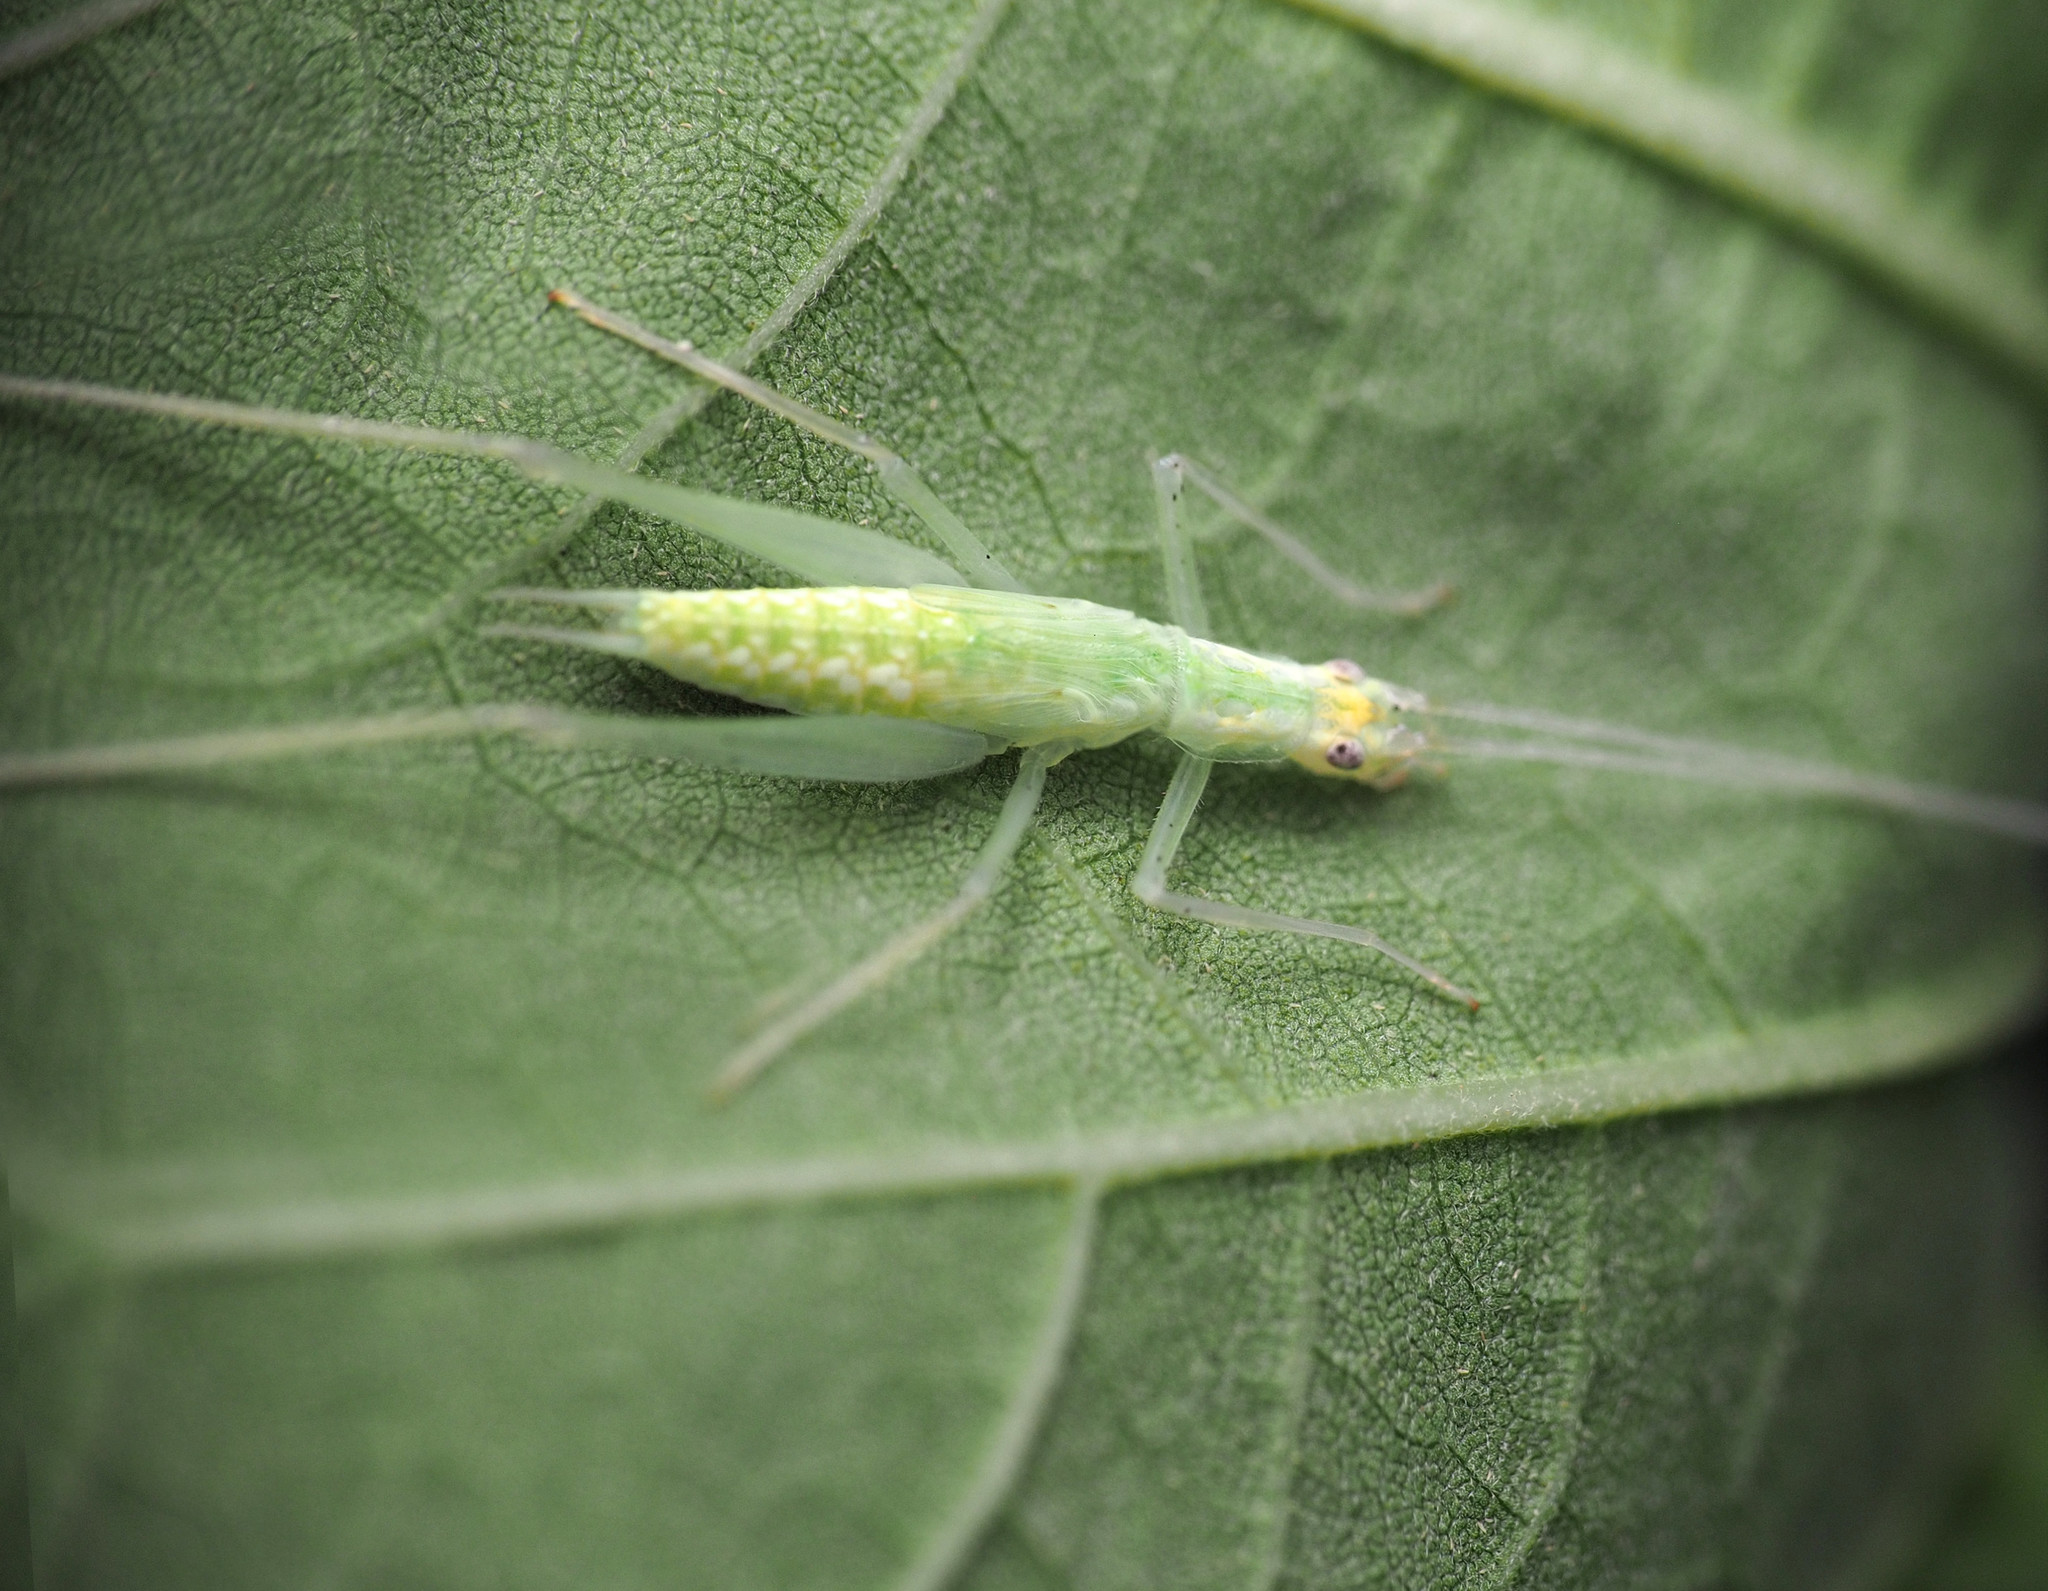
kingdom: Animalia
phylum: Arthropoda
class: Insecta
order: Orthoptera
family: Gryllidae
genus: Oecanthus
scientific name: Oecanthus niveus
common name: Narrow-winged tree cricket
